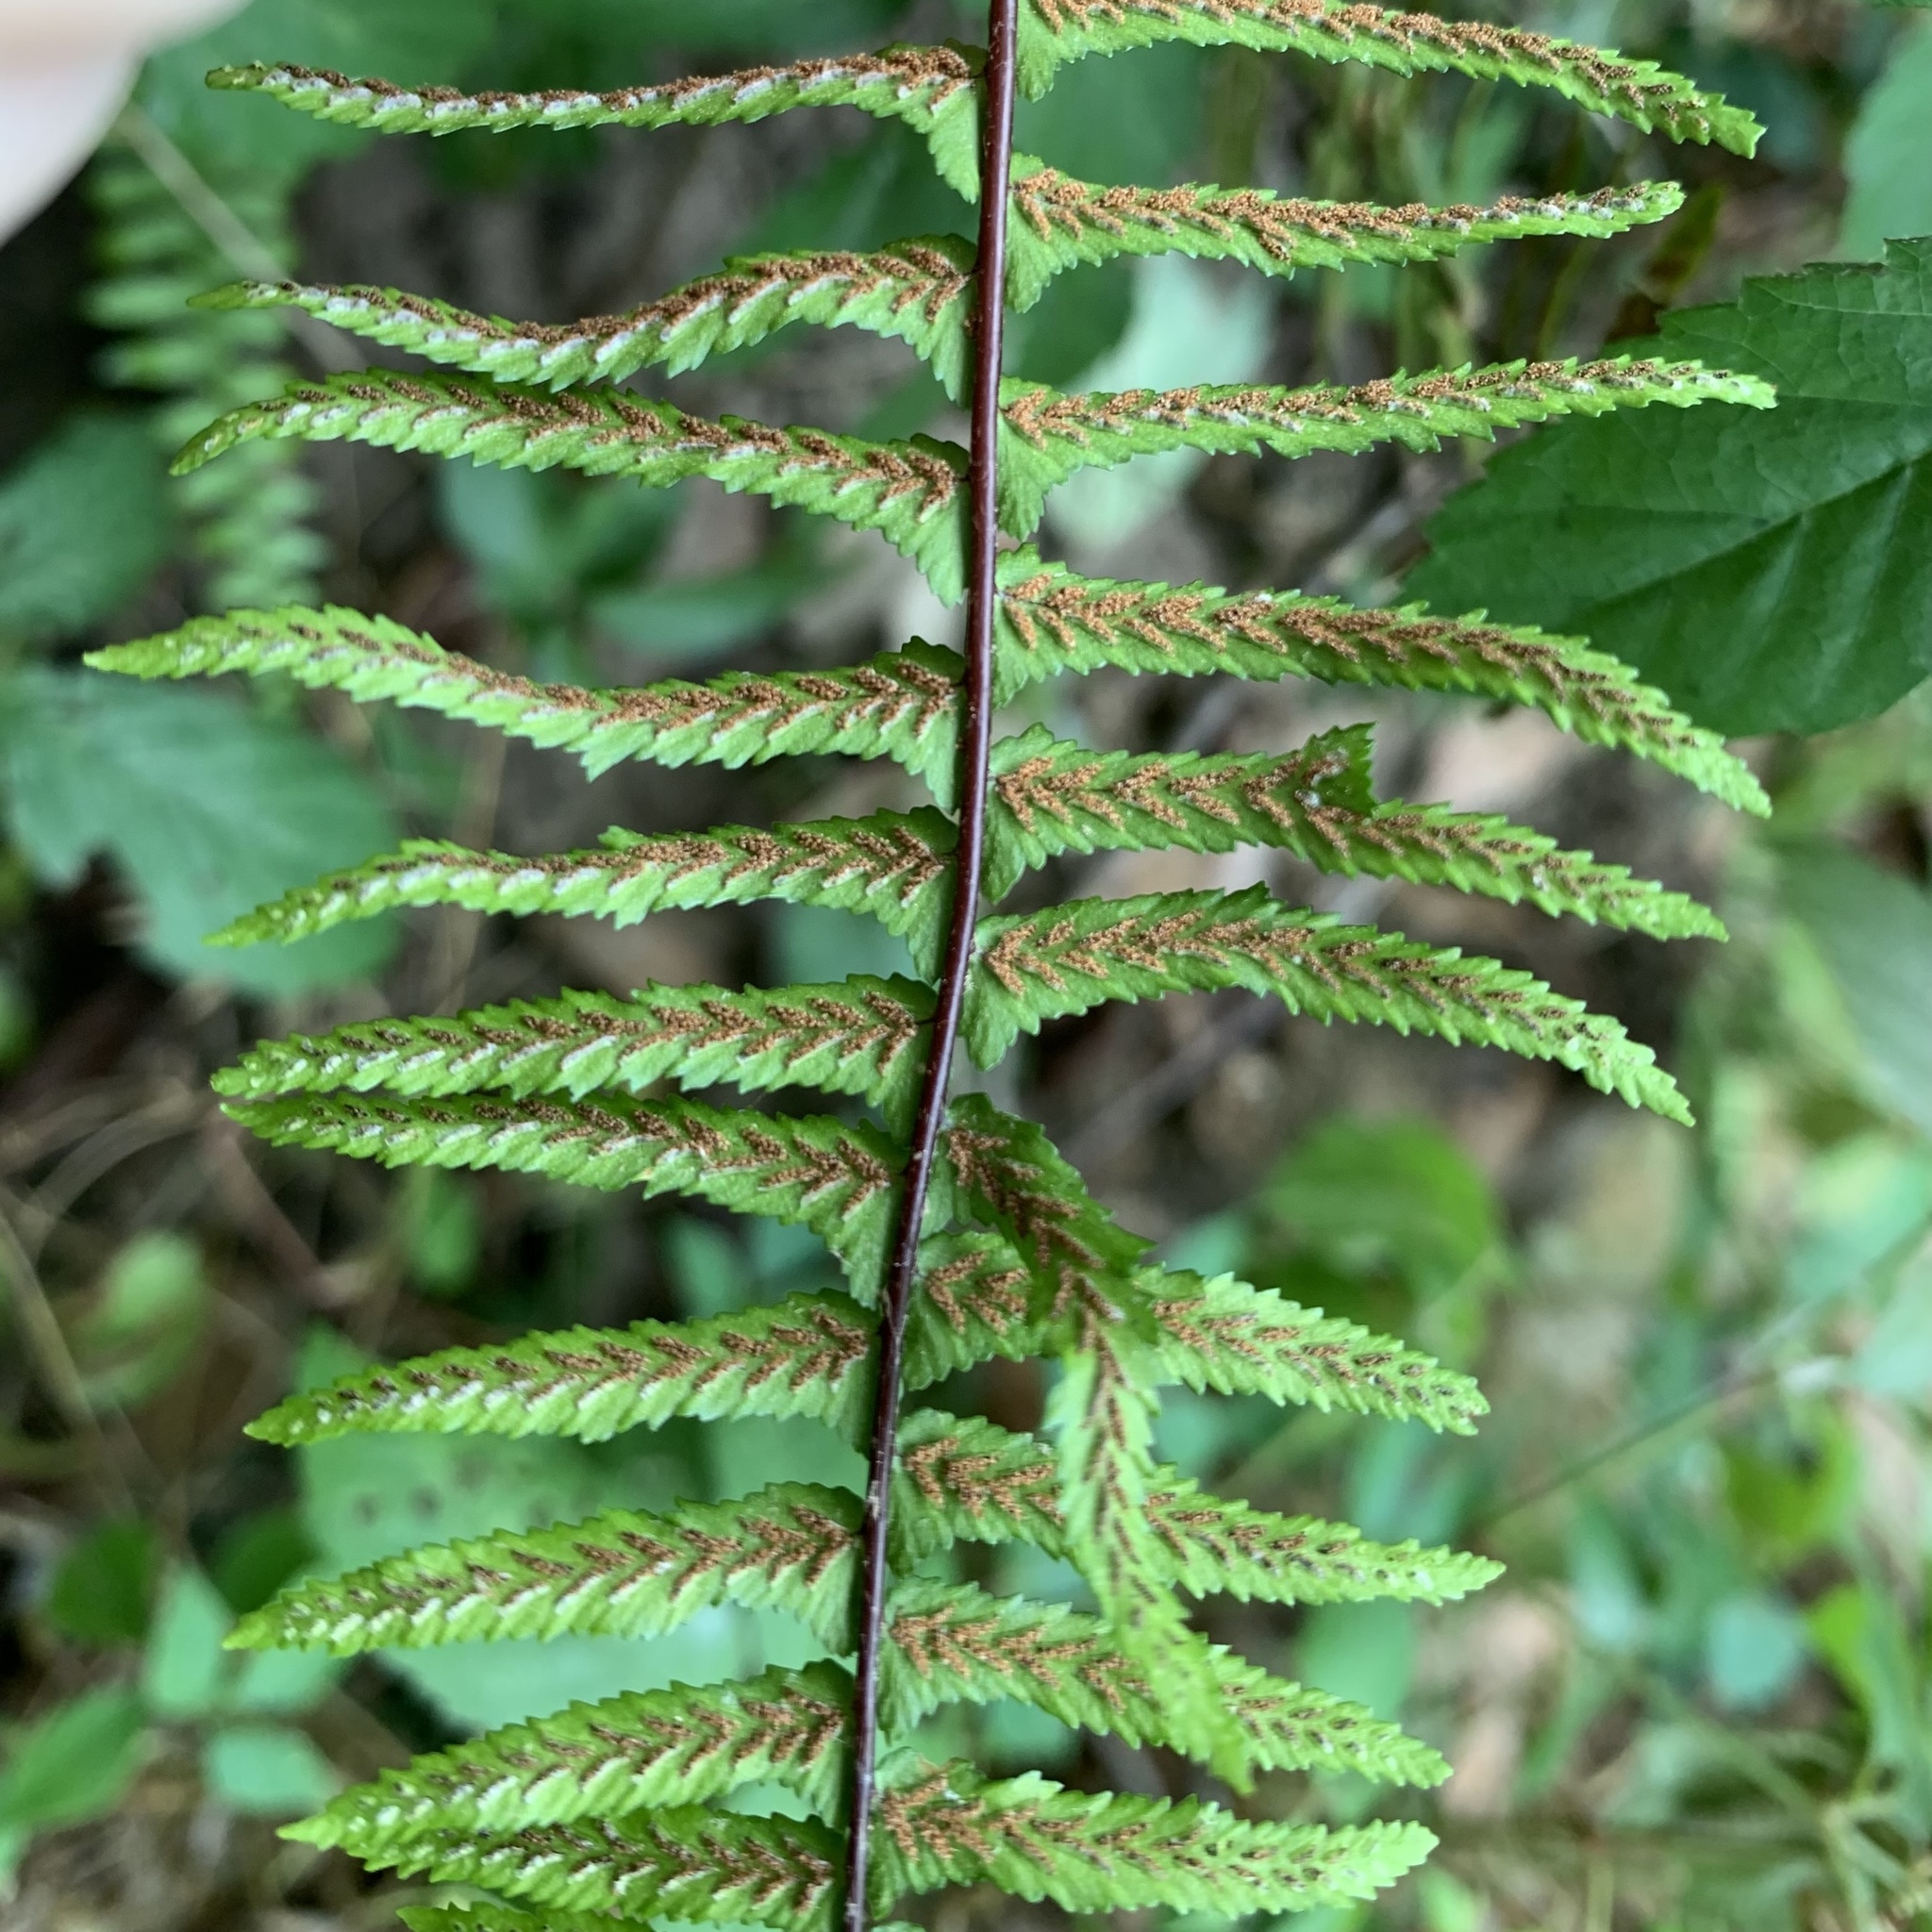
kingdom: Plantae
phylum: Tracheophyta
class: Polypodiopsida
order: Polypodiales
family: Aspleniaceae
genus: Asplenium
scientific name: Asplenium platyneuron
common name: Ebony spleenwort
